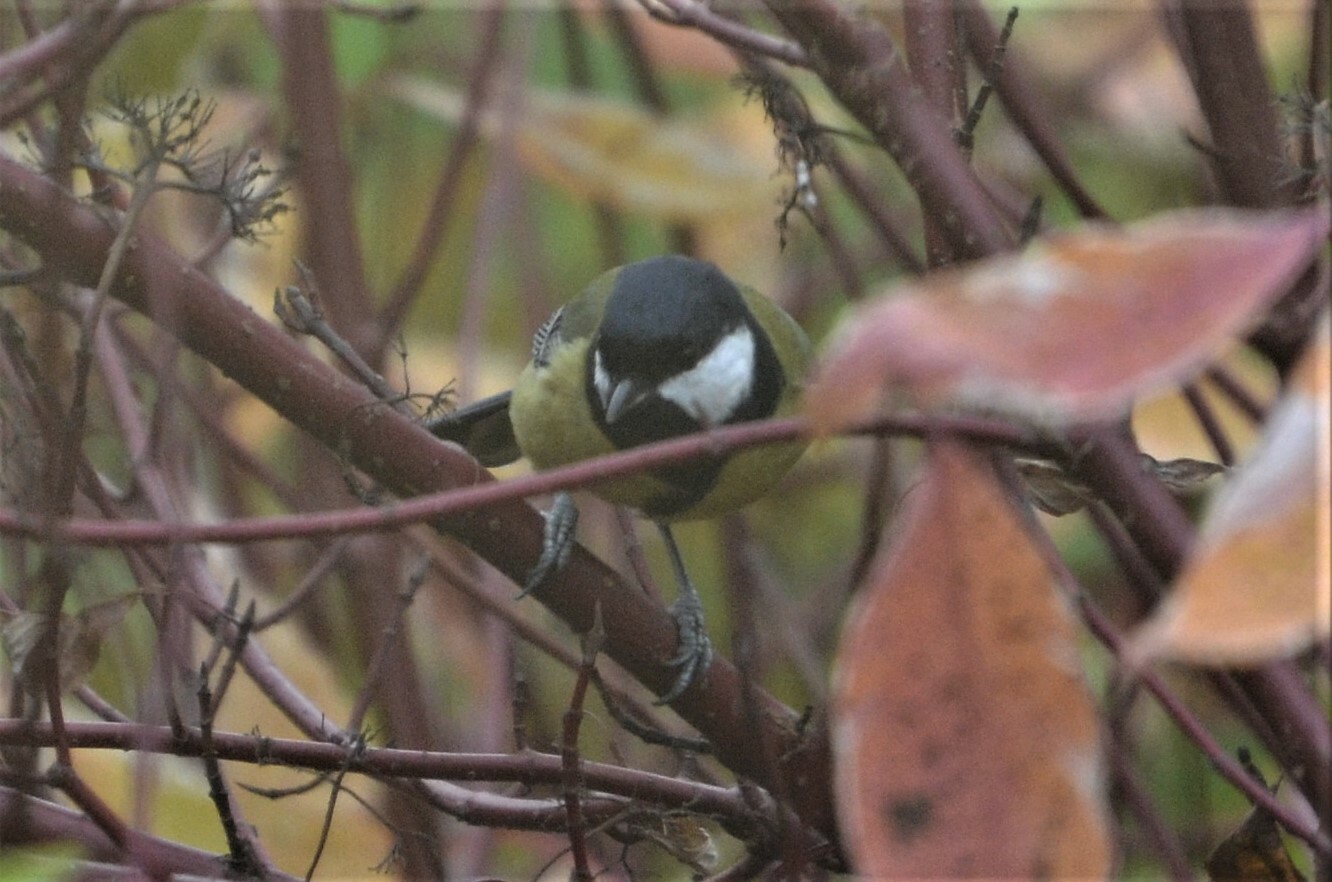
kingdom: Animalia
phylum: Chordata
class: Aves
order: Passeriformes
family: Paridae
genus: Parus
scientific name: Parus major
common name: Great tit
